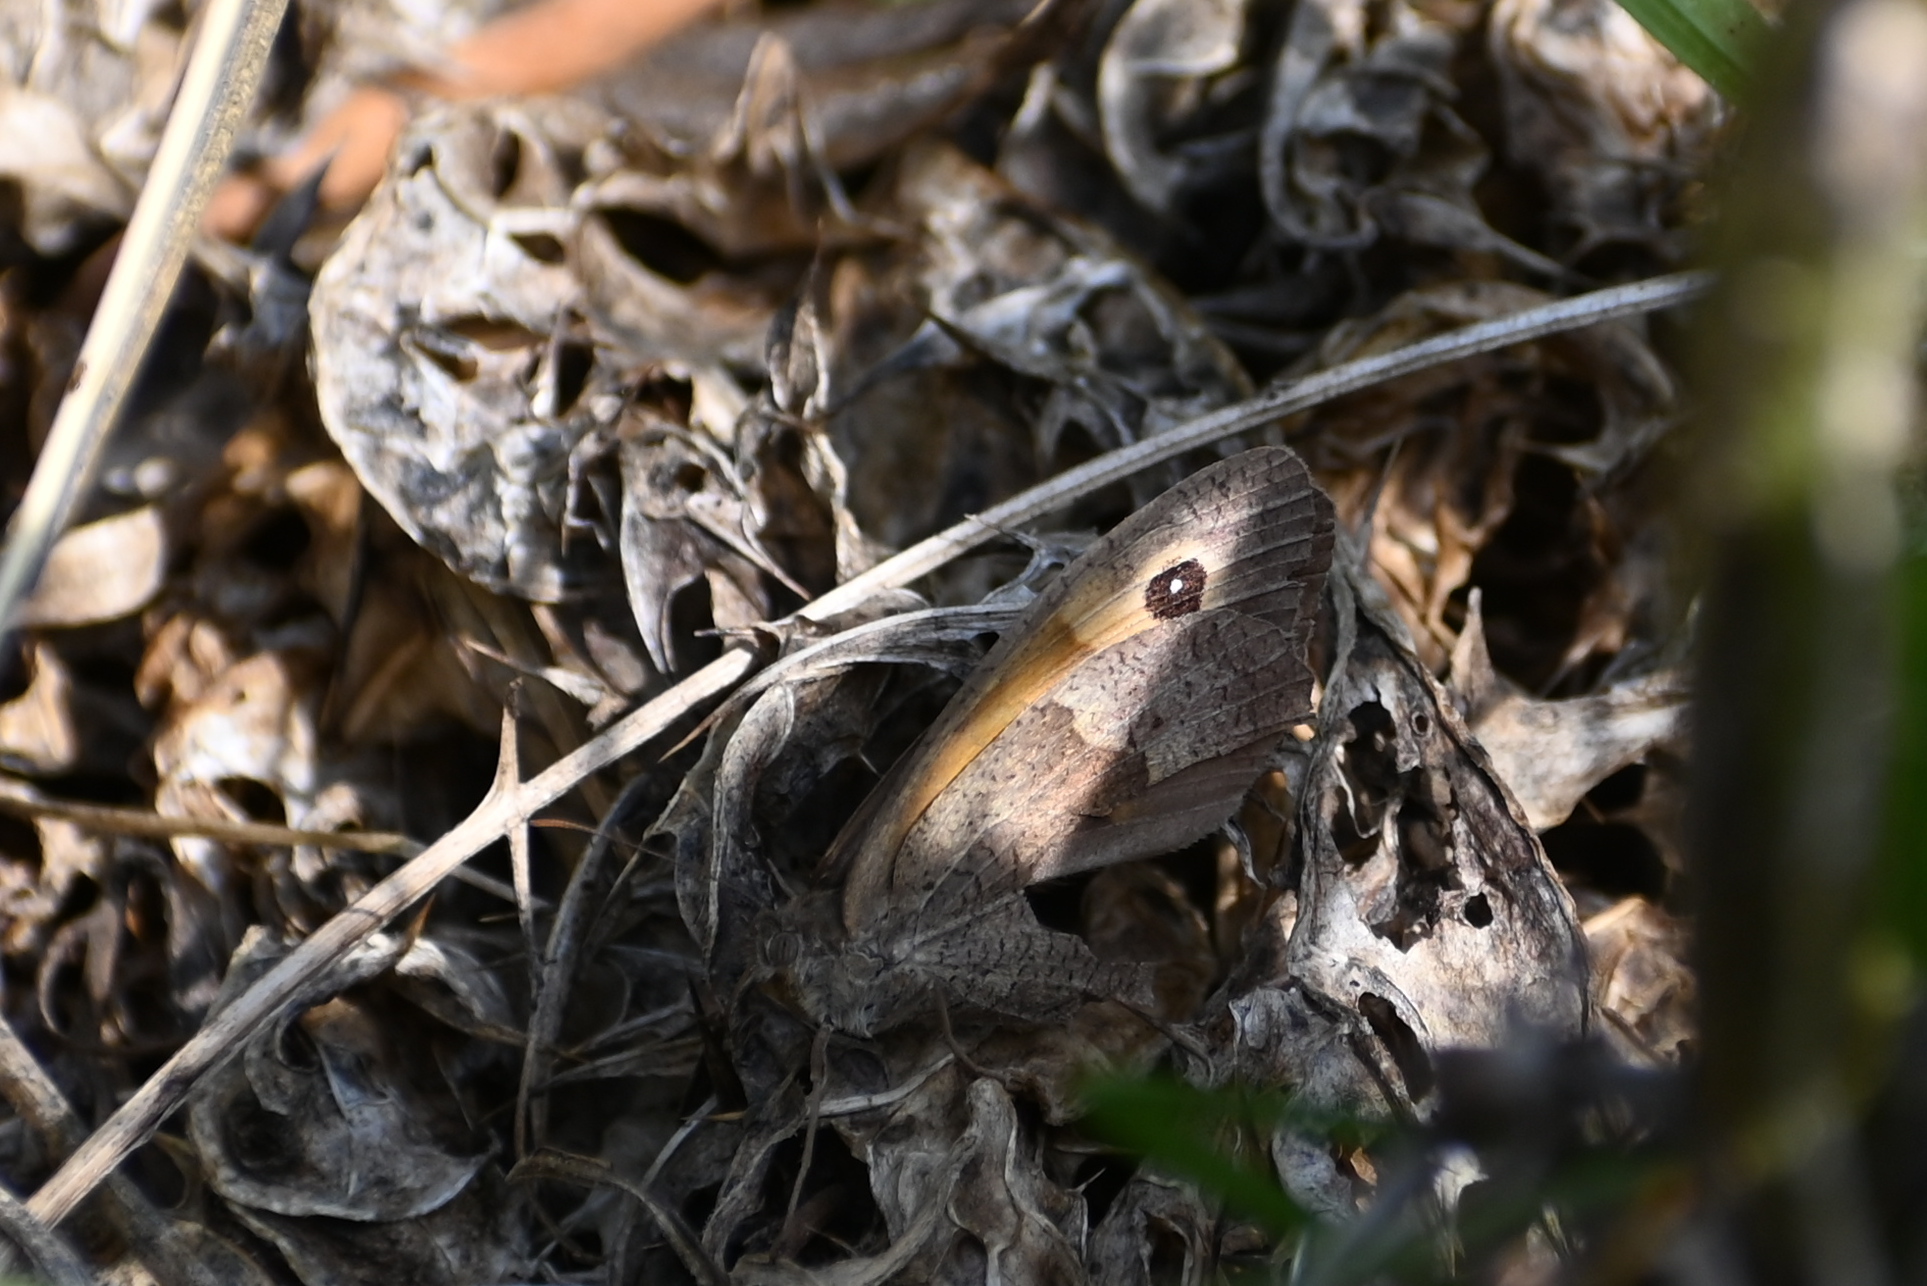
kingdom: Animalia
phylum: Arthropoda
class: Insecta
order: Lepidoptera
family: Nymphalidae
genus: Maniola
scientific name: Maniola jurtina
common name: Meadow brown
